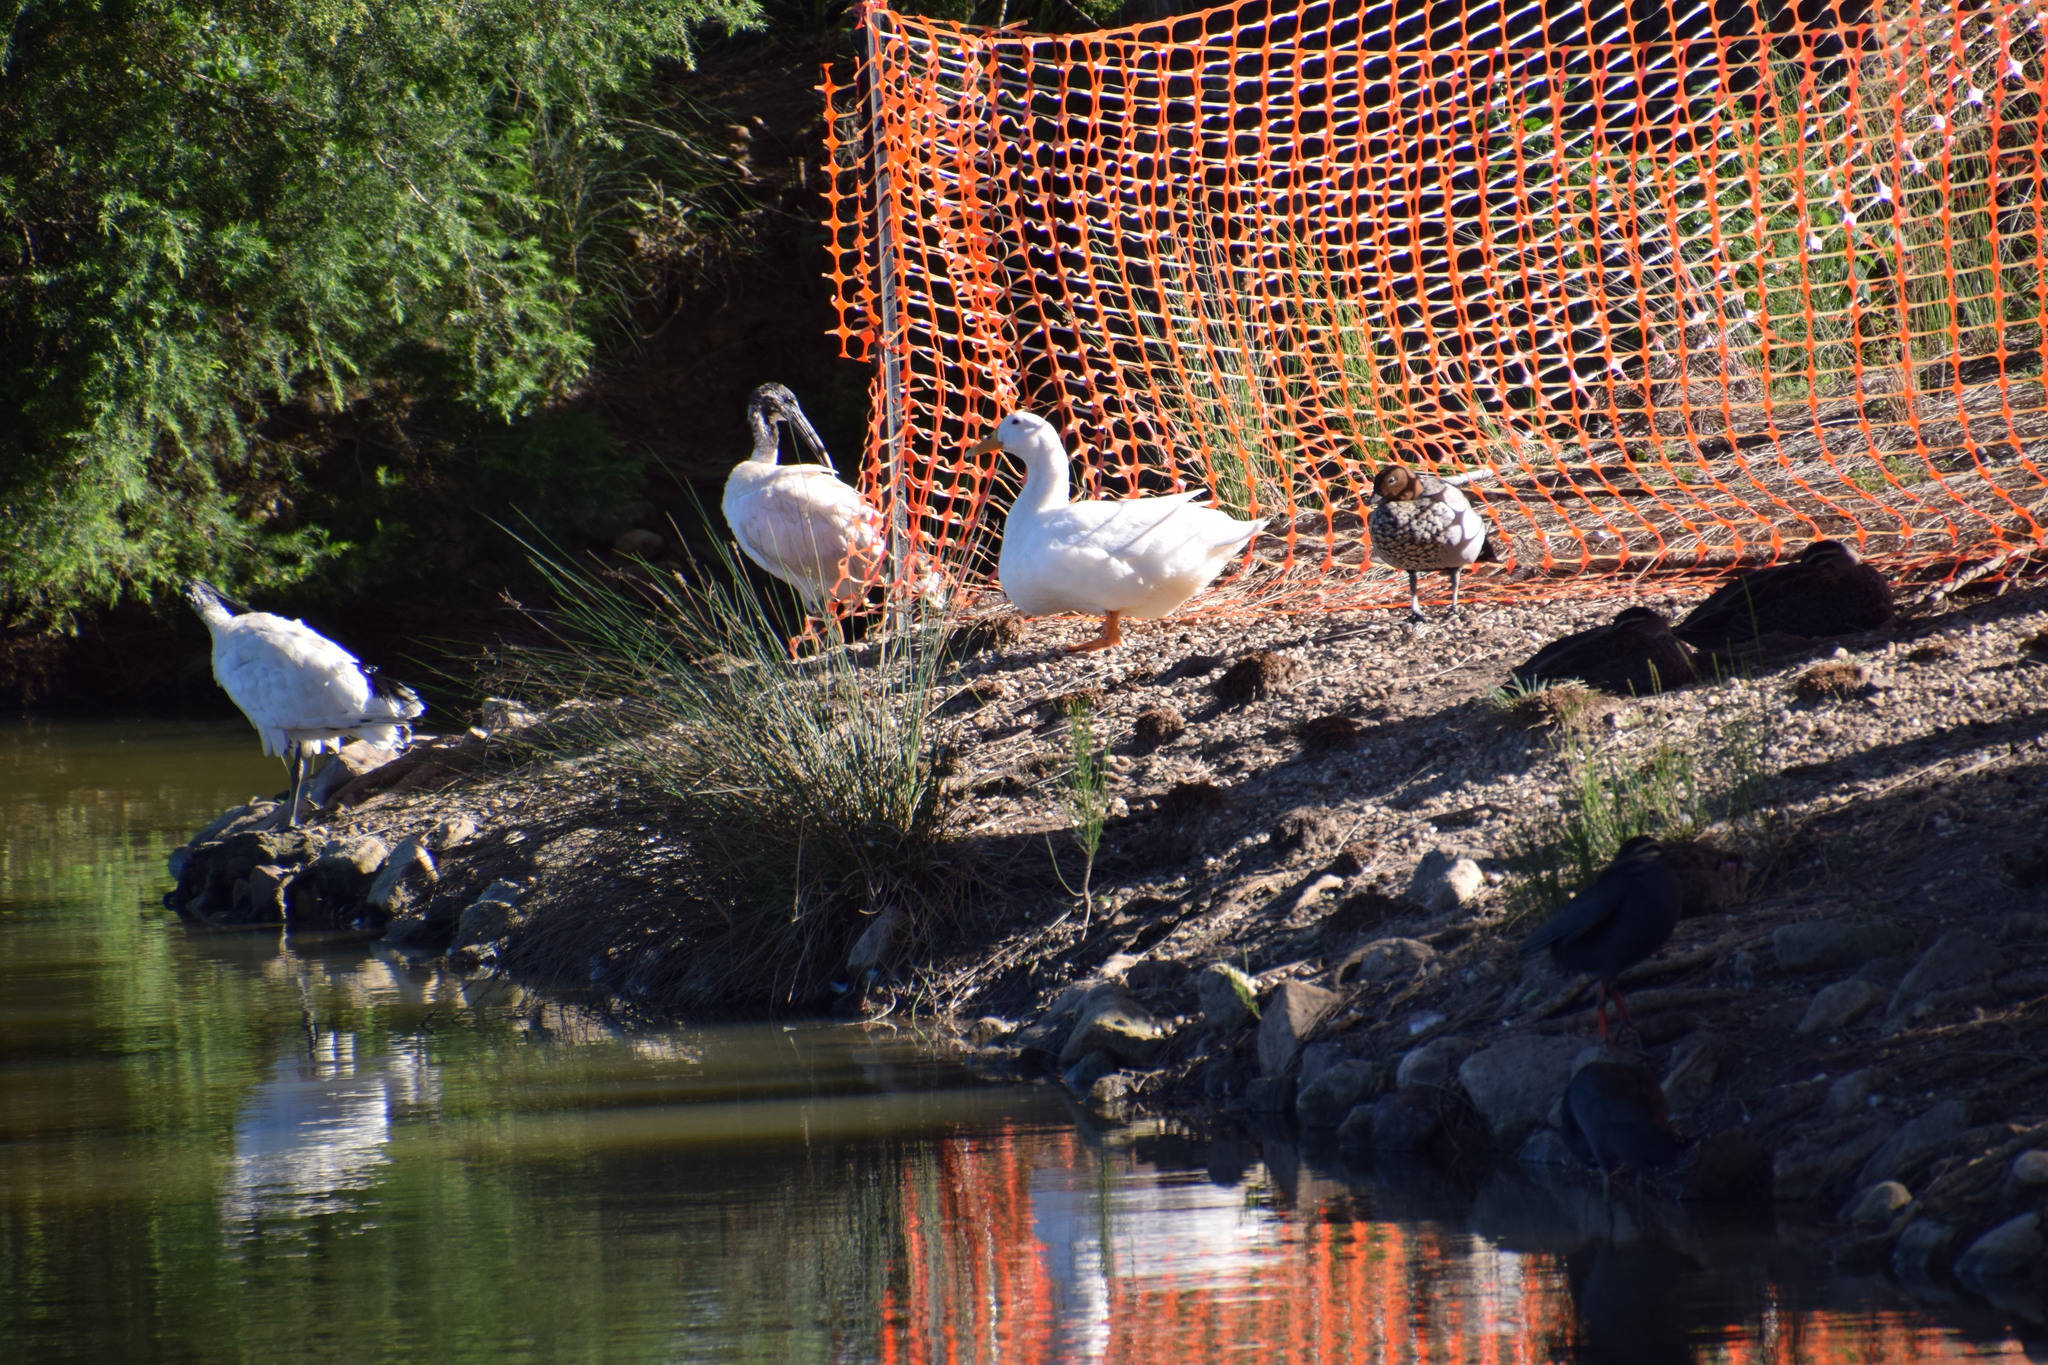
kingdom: Animalia
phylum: Chordata
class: Aves
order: Anseriformes
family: Anatidae
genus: Anas
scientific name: Anas platyrhynchos
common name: Mallard
